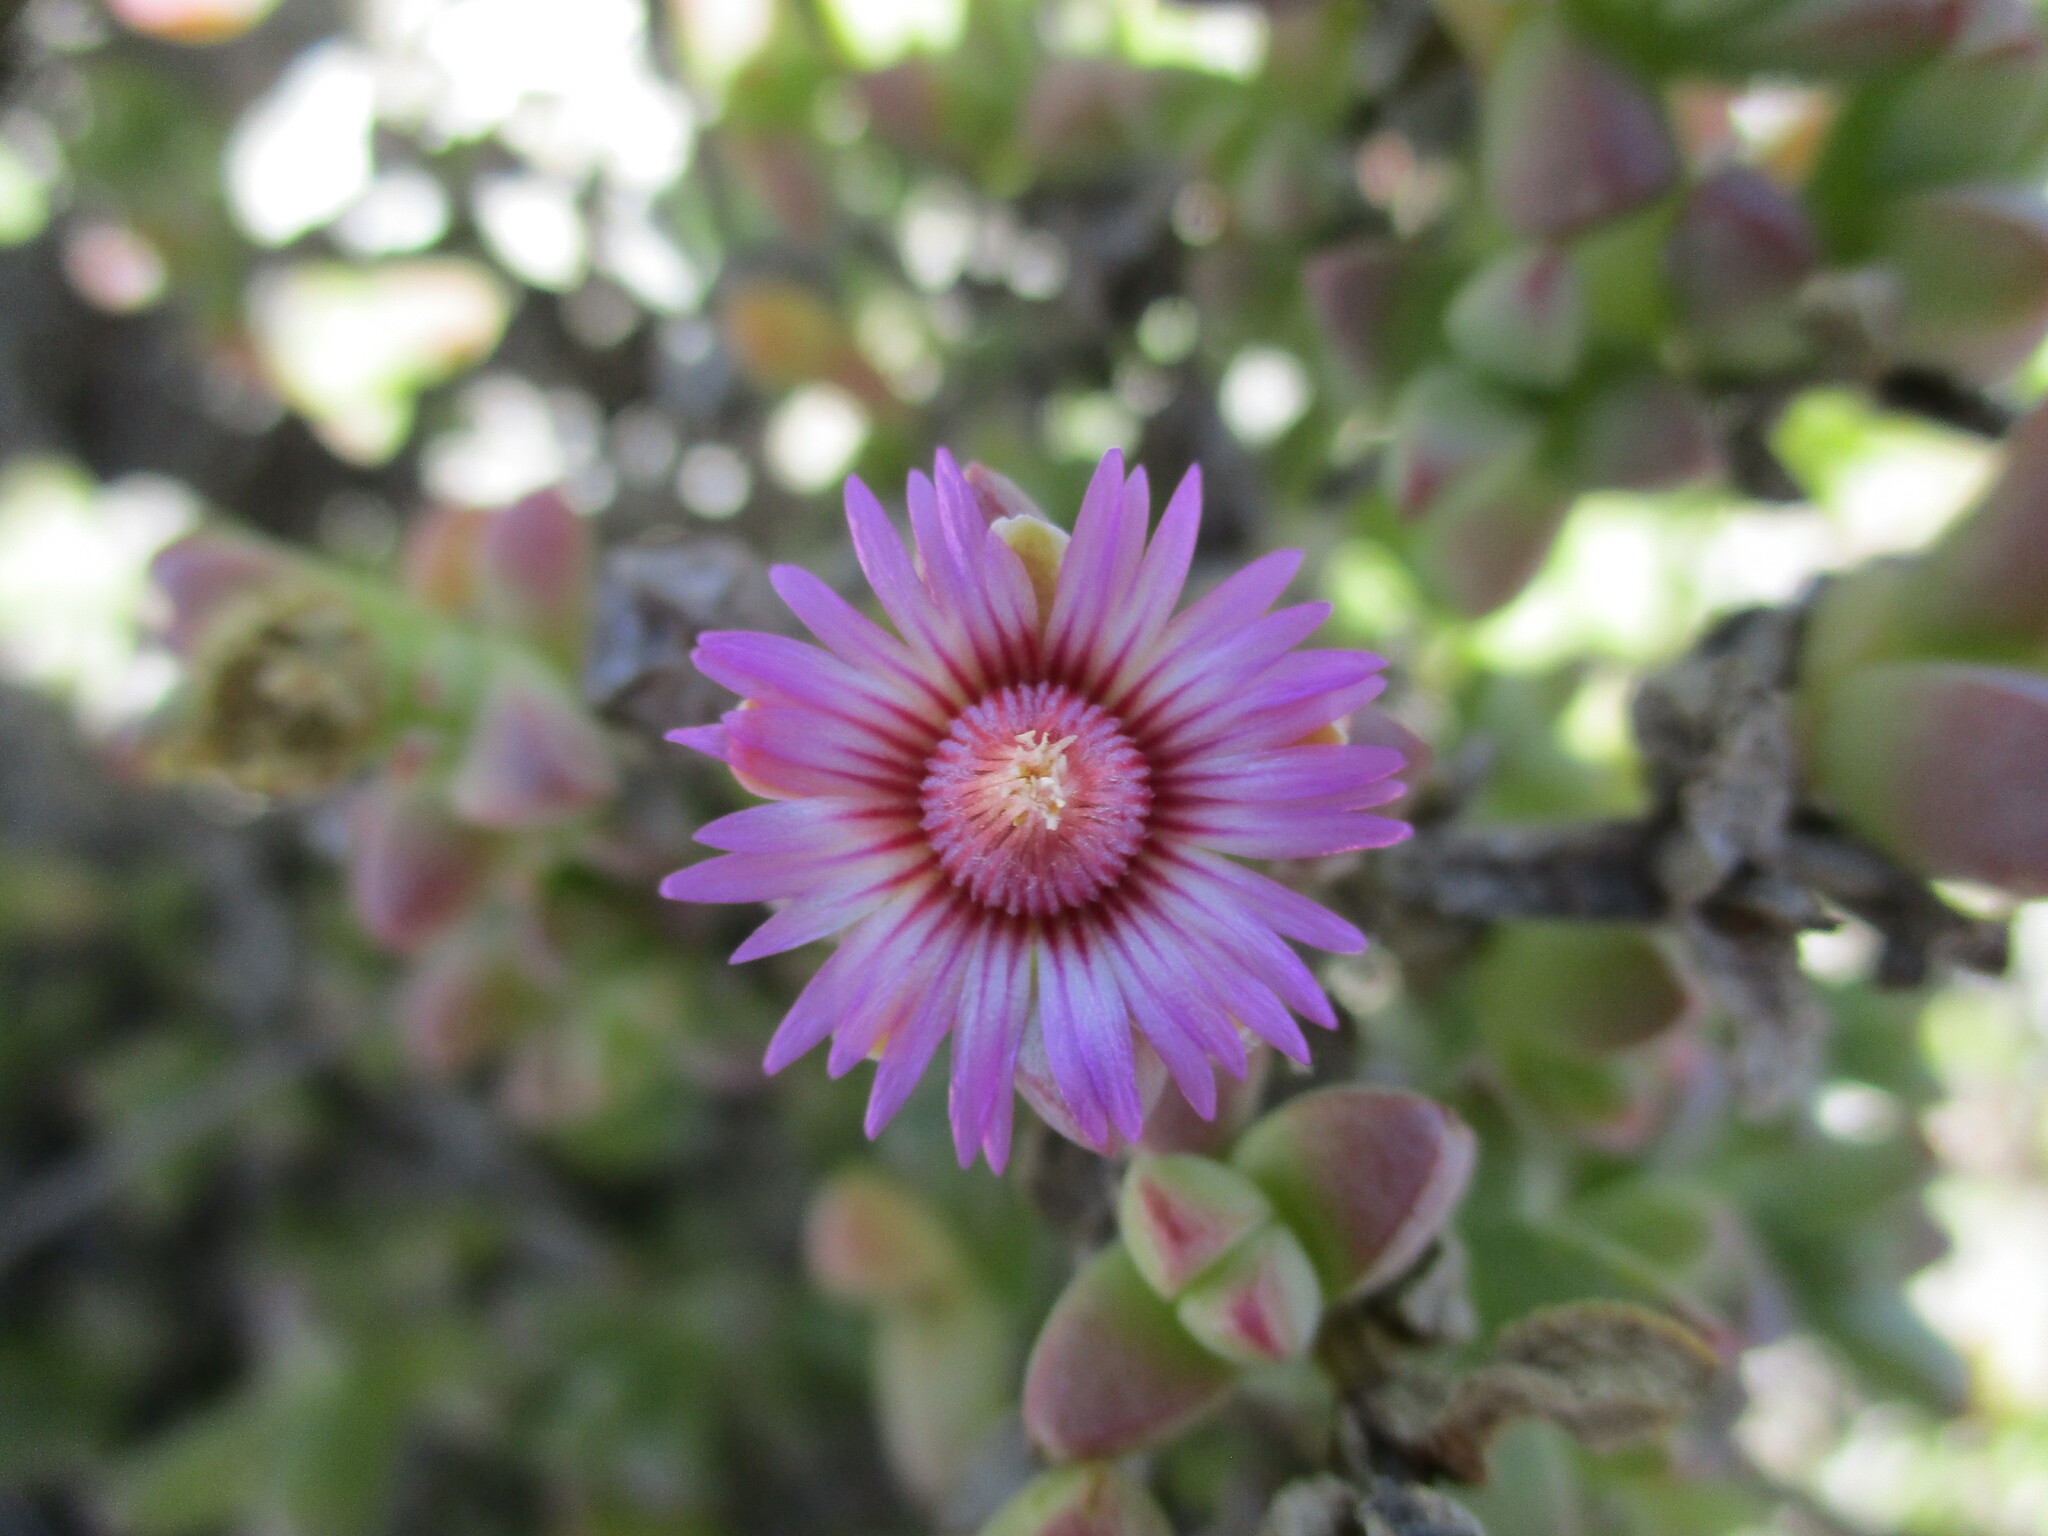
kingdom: Plantae
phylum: Tracheophyta
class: Magnoliopsida
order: Caryophyllales
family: Aizoaceae
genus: Amphibolia
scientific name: Amphibolia laevis
